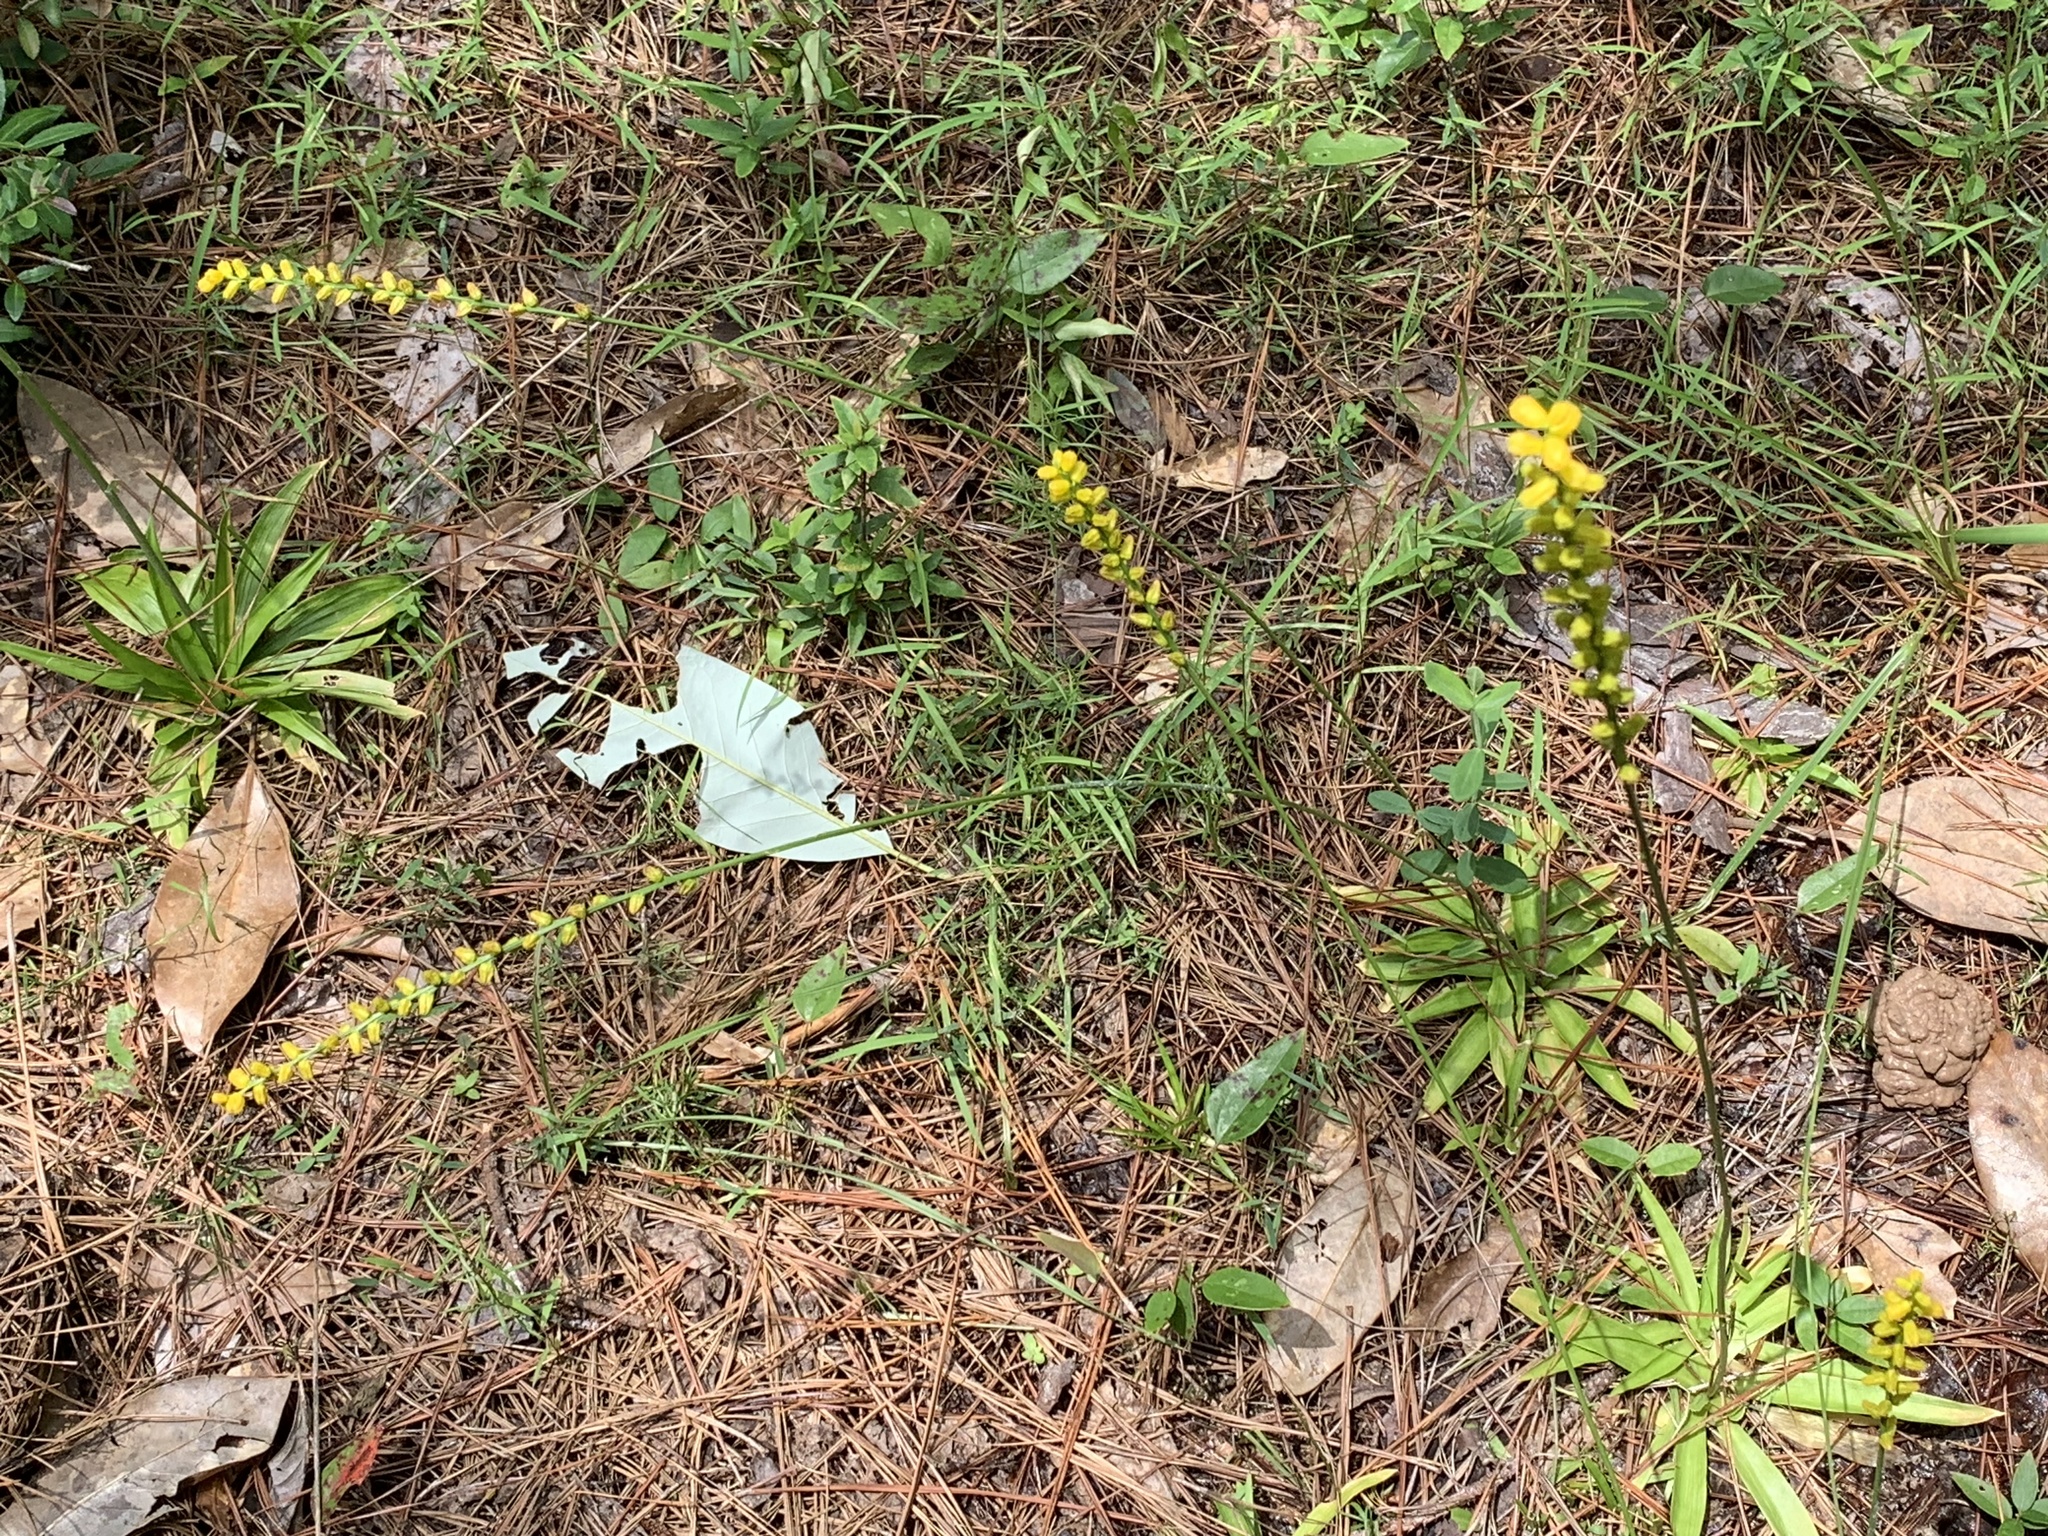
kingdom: Plantae
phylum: Tracheophyta
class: Liliopsida
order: Dioscoreales
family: Nartheciaceae
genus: Aletris
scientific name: Aletris aurea
